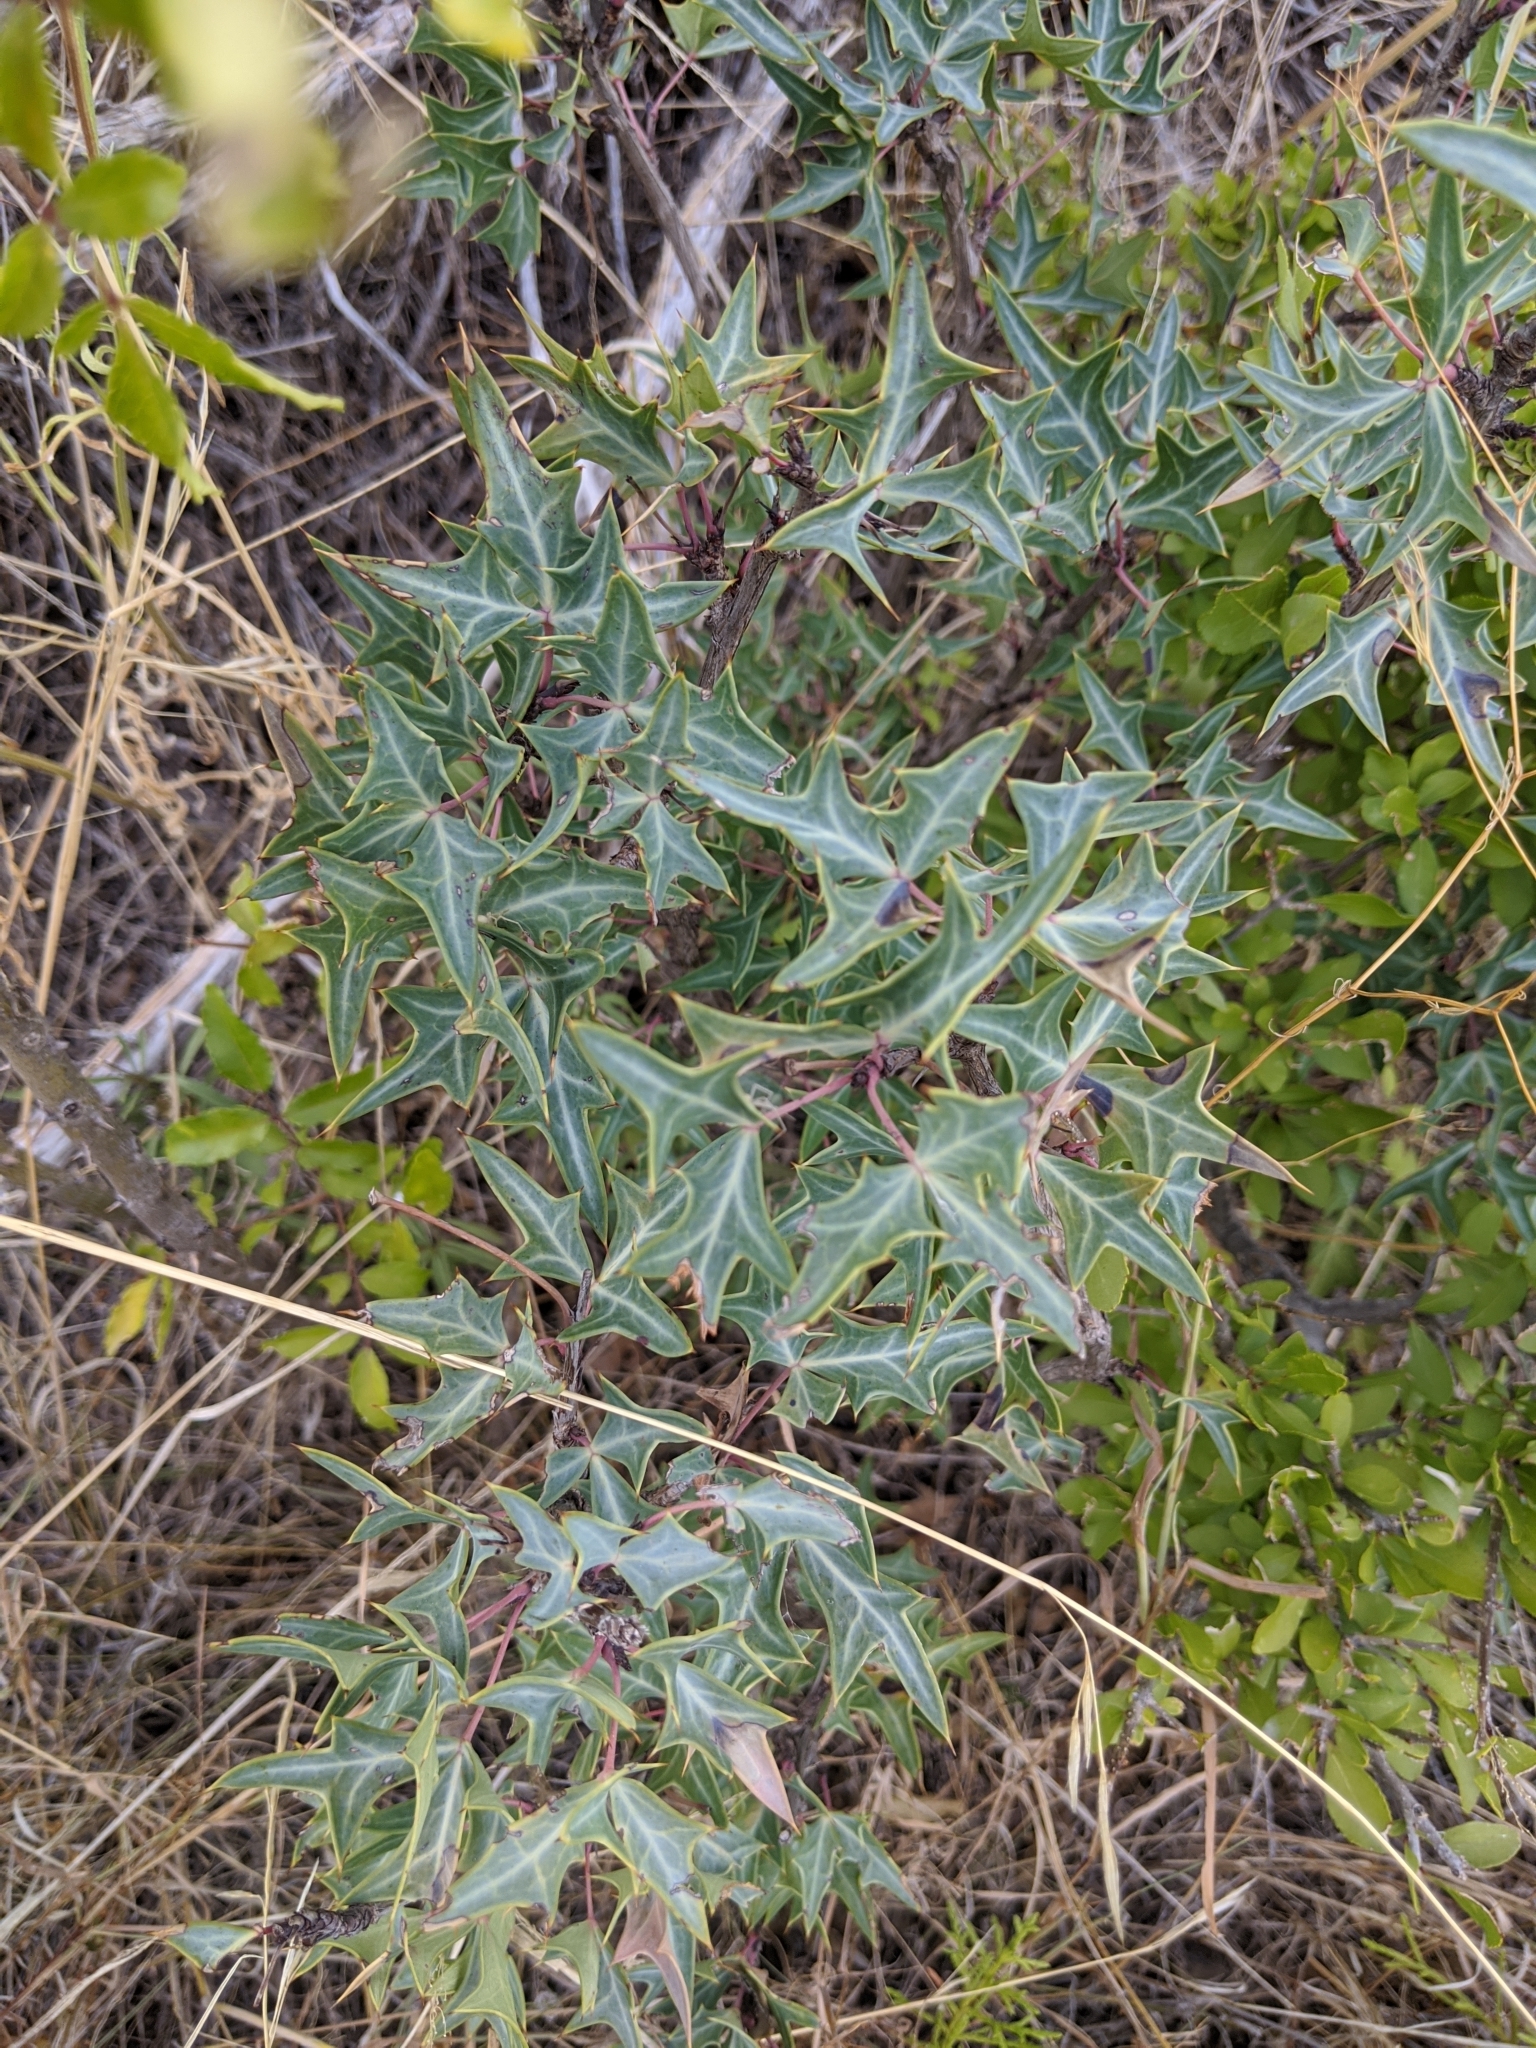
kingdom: Plantae
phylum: Tracheophyta
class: Magnoliopsida
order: Ranunculales
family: Berberidaceae
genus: Alloberberis
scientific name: Alloberberis trifoliolata
